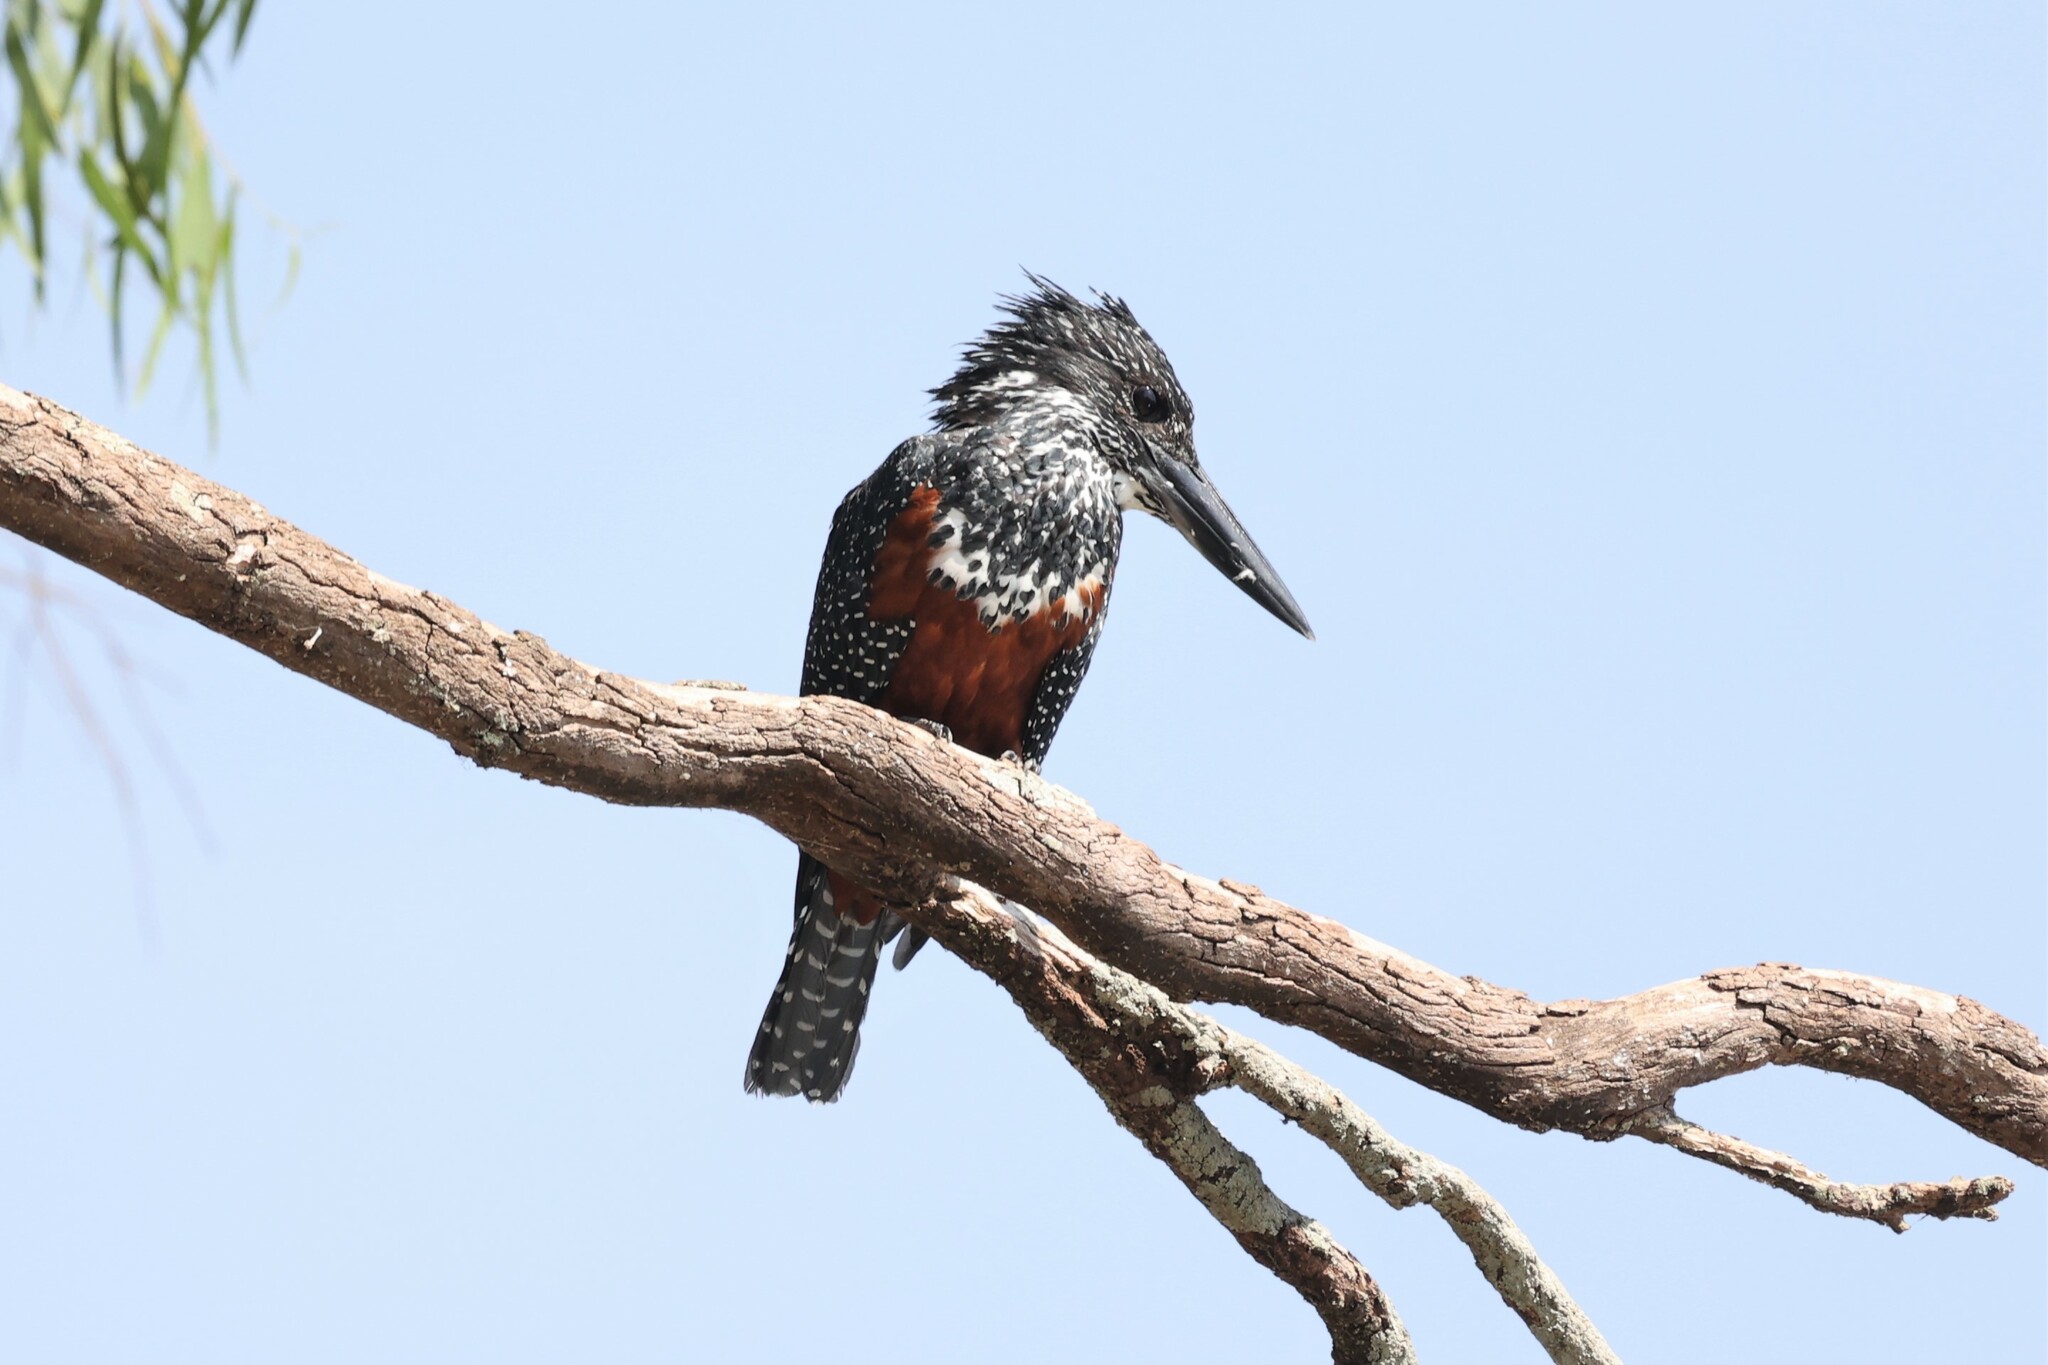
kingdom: Animalia
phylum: Chordata
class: Aves
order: Coraciiformes
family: Alcedinidae
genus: Megaceryle
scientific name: Megaceryle maxima
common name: Giant kingfisher
